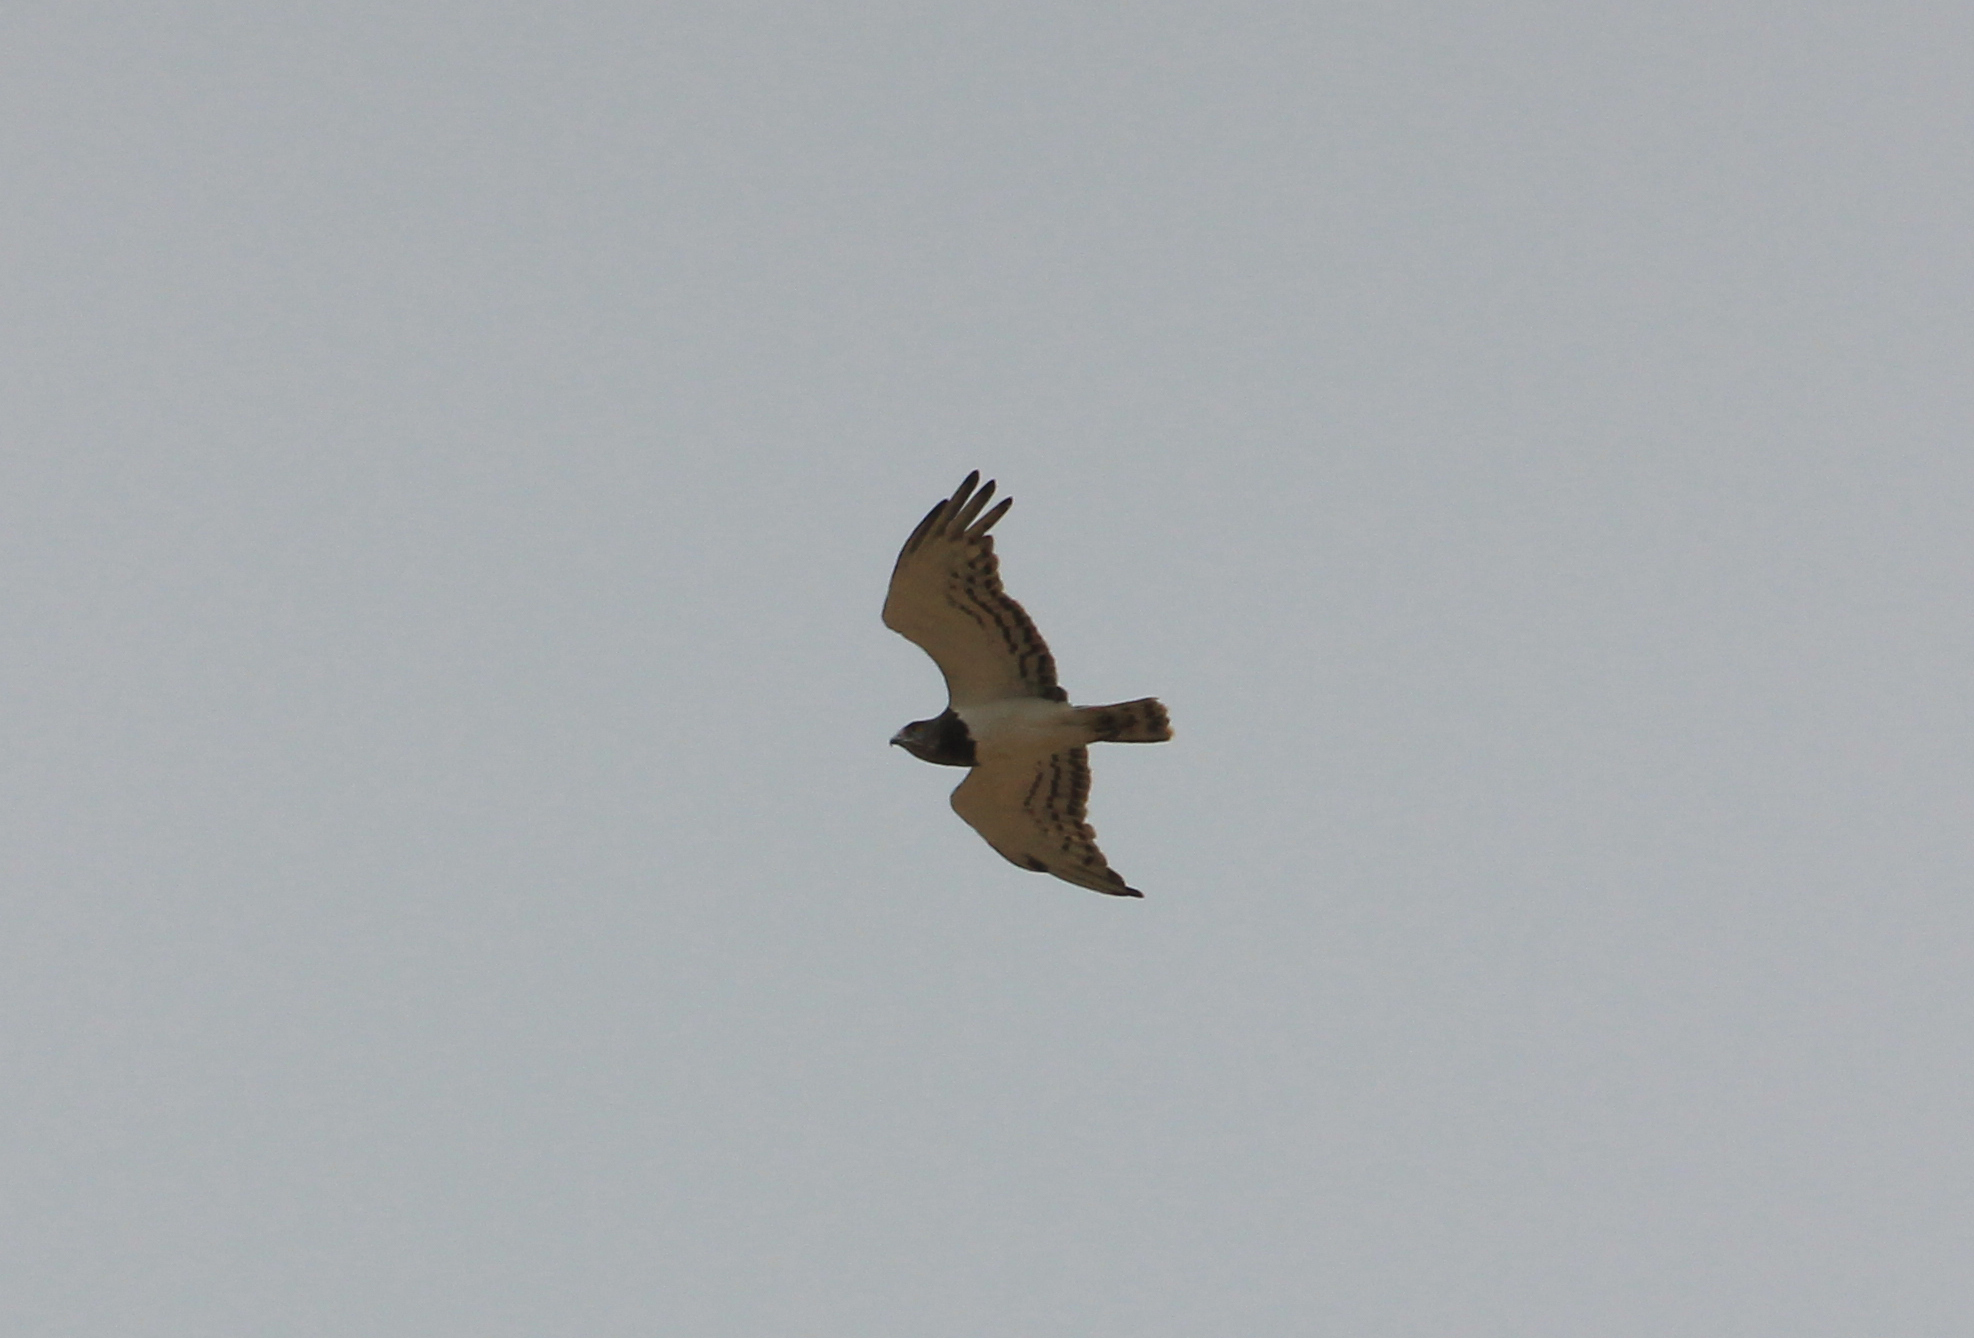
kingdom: Animalia
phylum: Chordata
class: Aves
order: Accipitriformes
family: Accipitridae
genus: Circaetus
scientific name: Circaetus pectoralis
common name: Black-chested snake eagle
